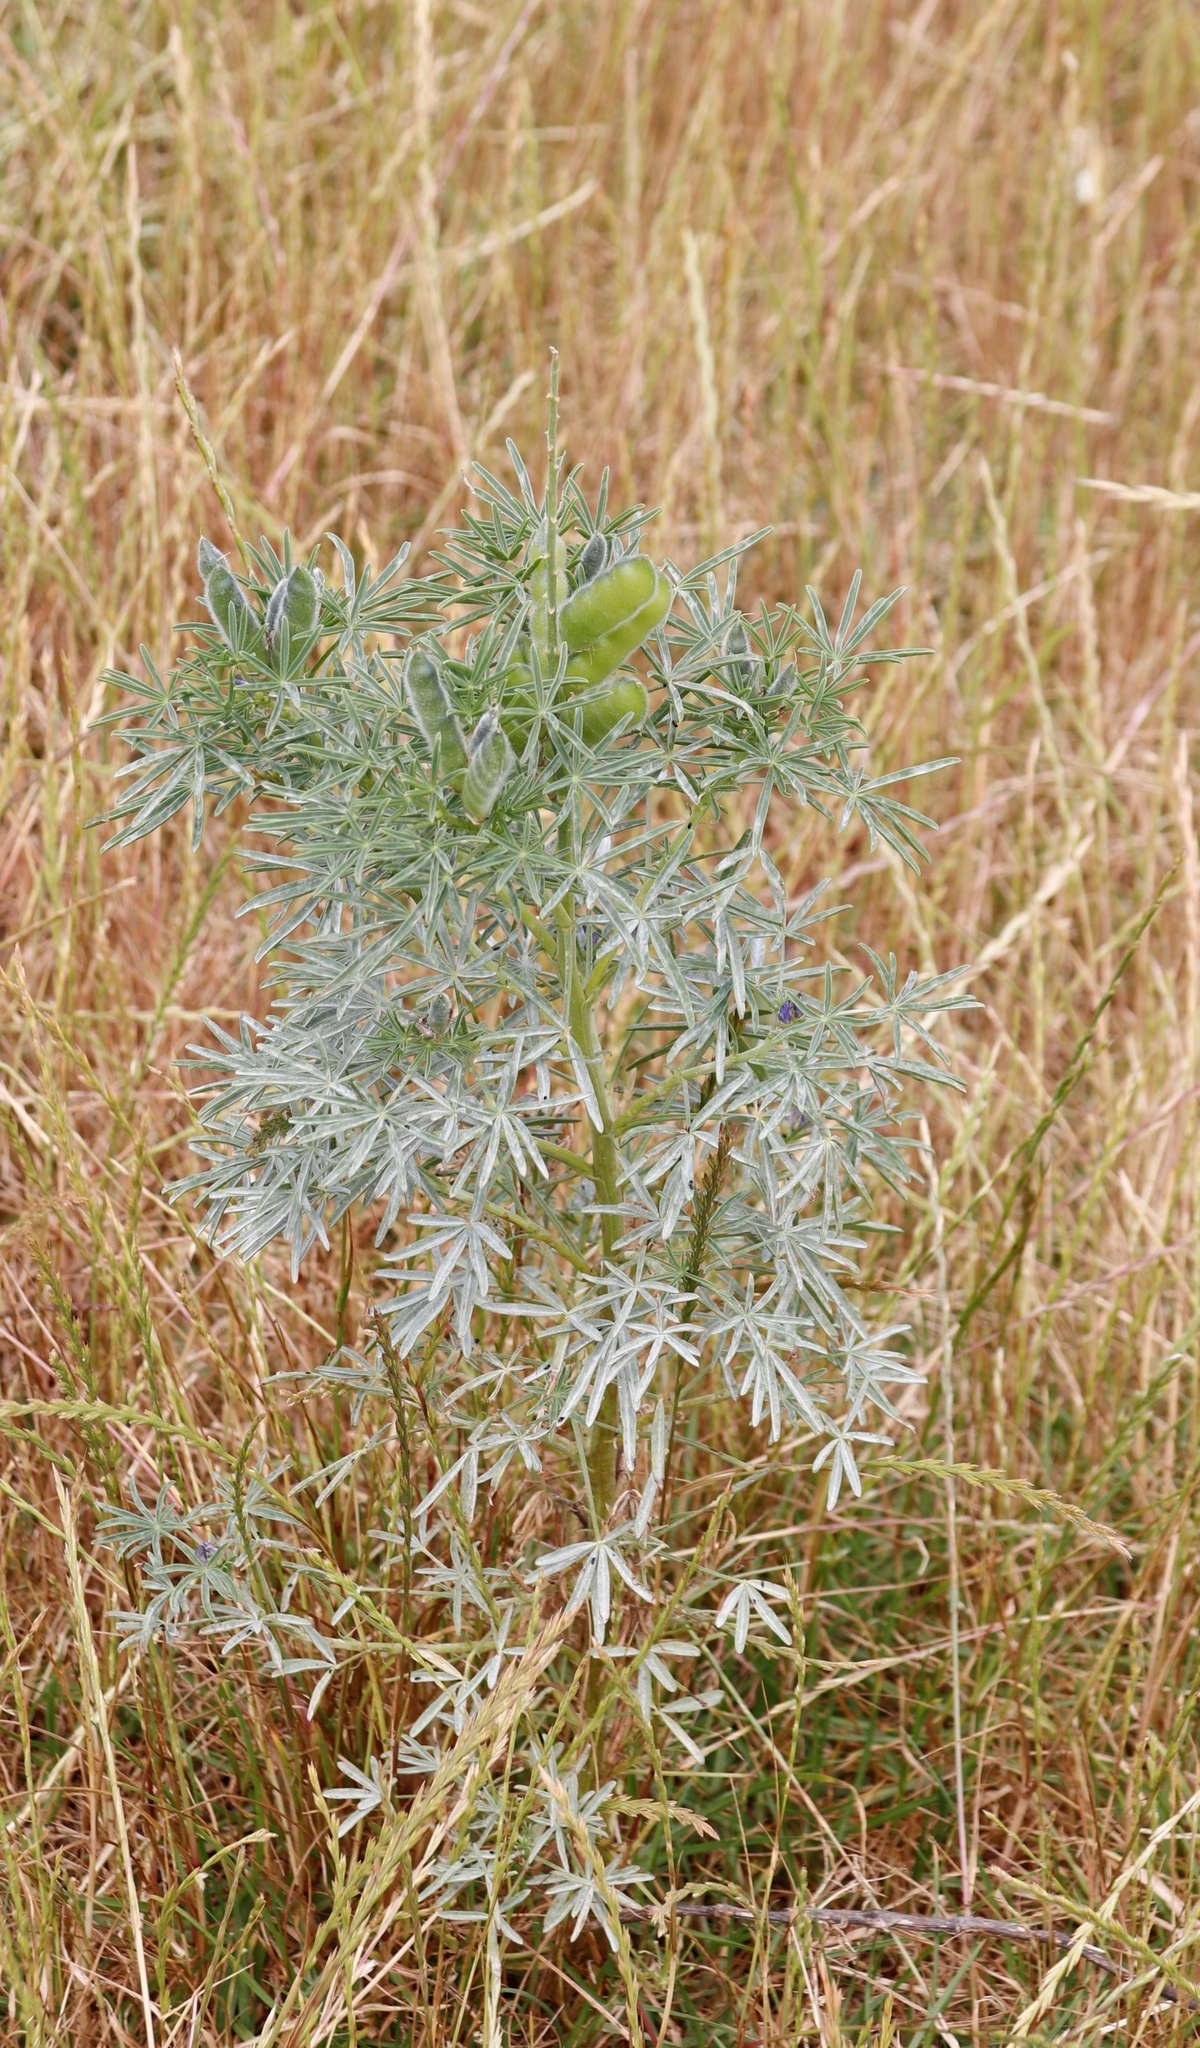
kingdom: Plantae
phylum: Tracheophyta
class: Magnoliopsida
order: Fabales
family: Fabaceae
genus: Lupinus
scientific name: Lupinus angustifolius
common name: Narrow-leaved lupin
